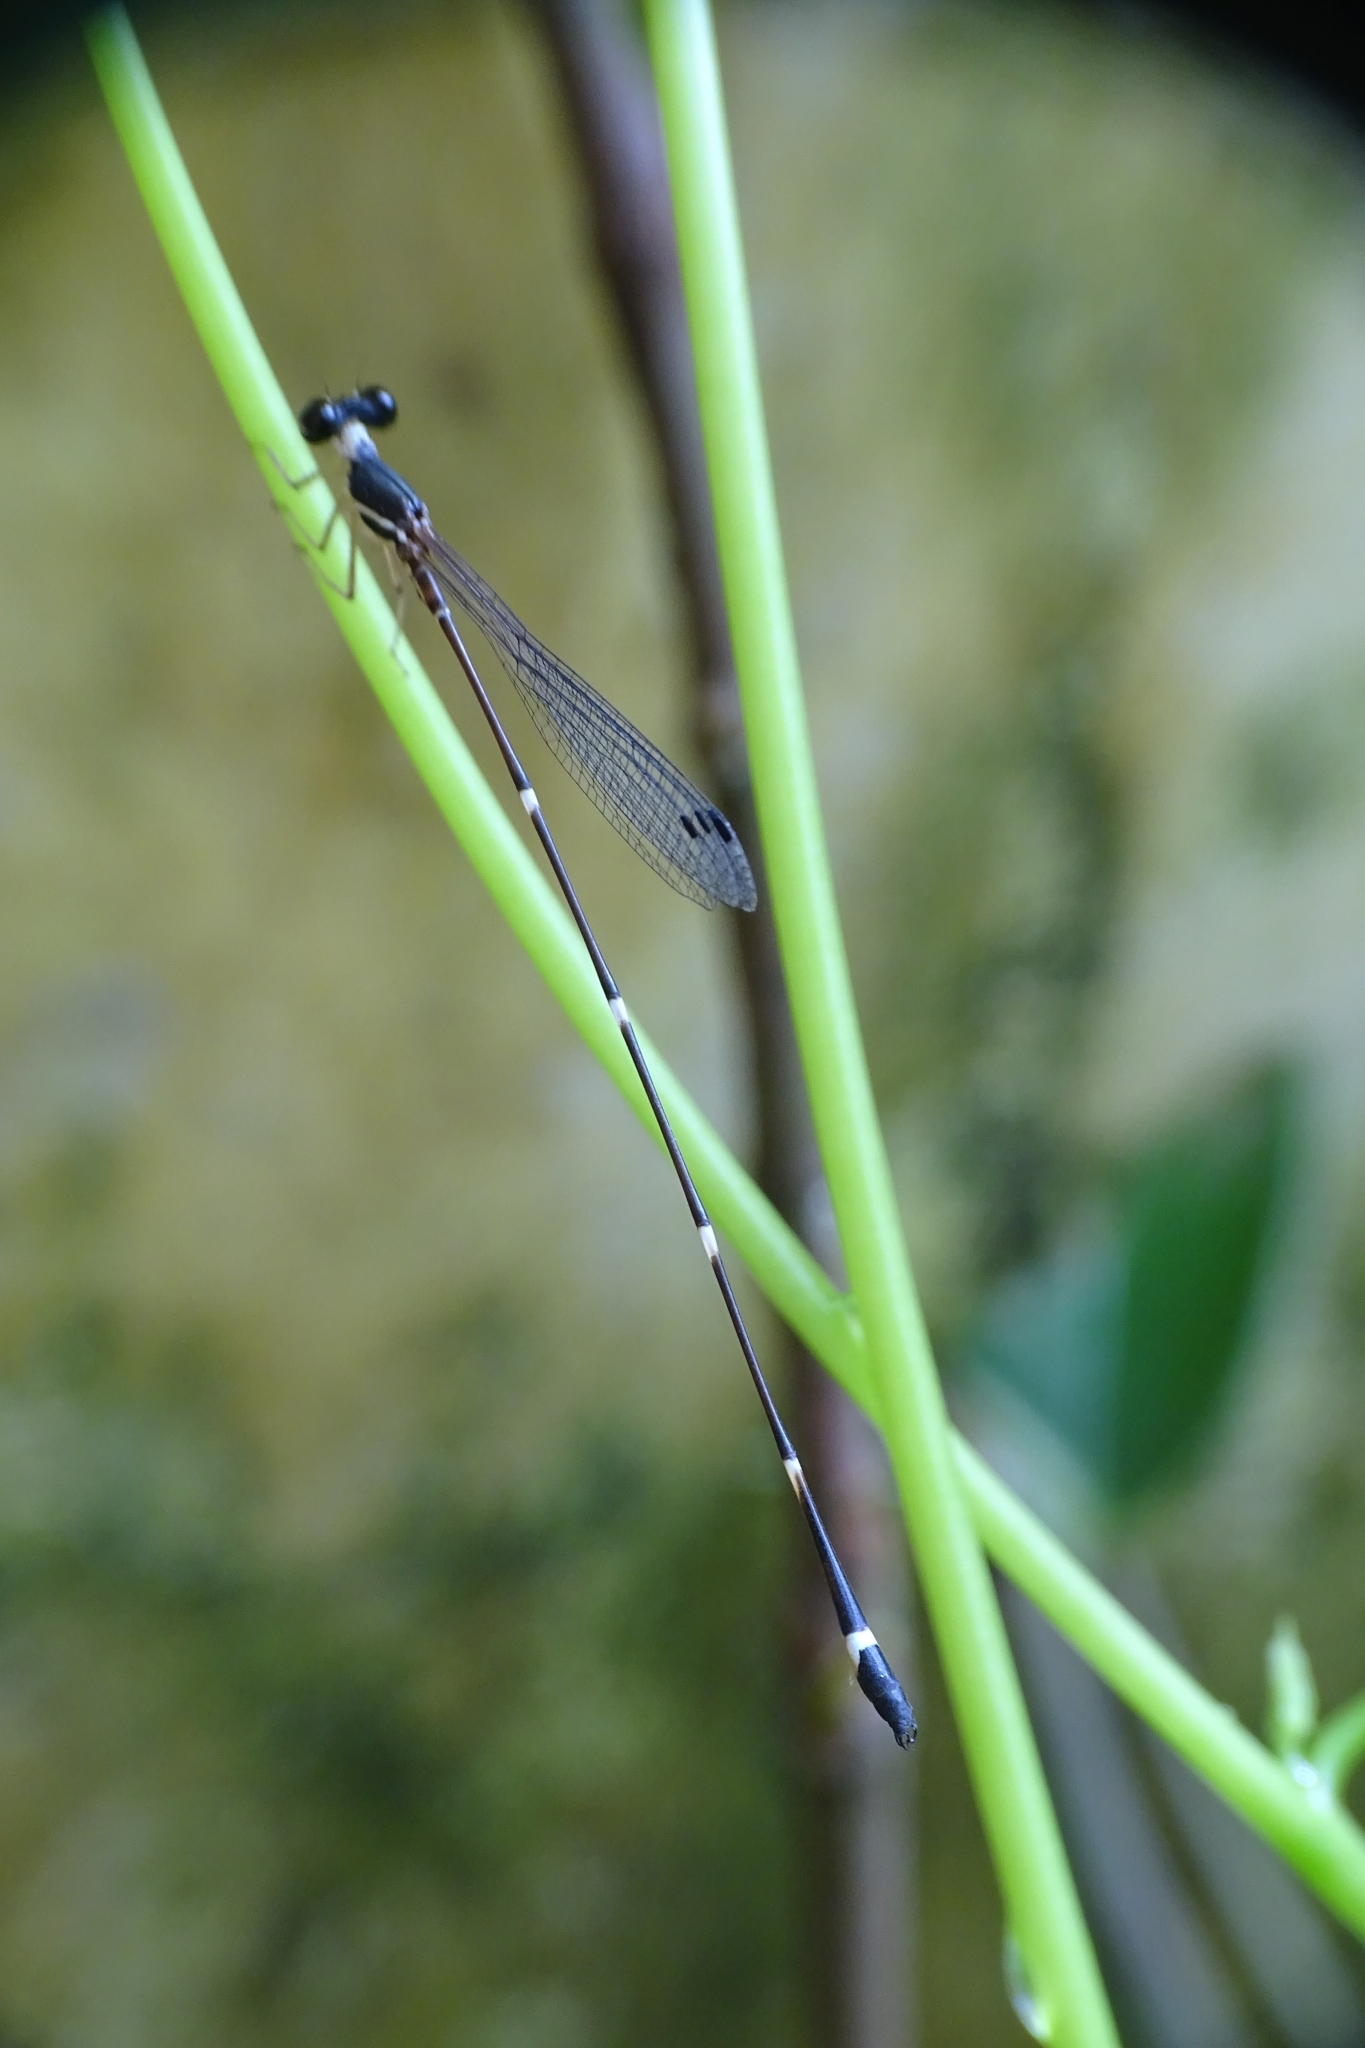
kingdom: Animalia
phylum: Arthropoda
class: Insecta
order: Odonata
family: Platystictidae
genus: Protosticta
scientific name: Protosticta gravelyi
